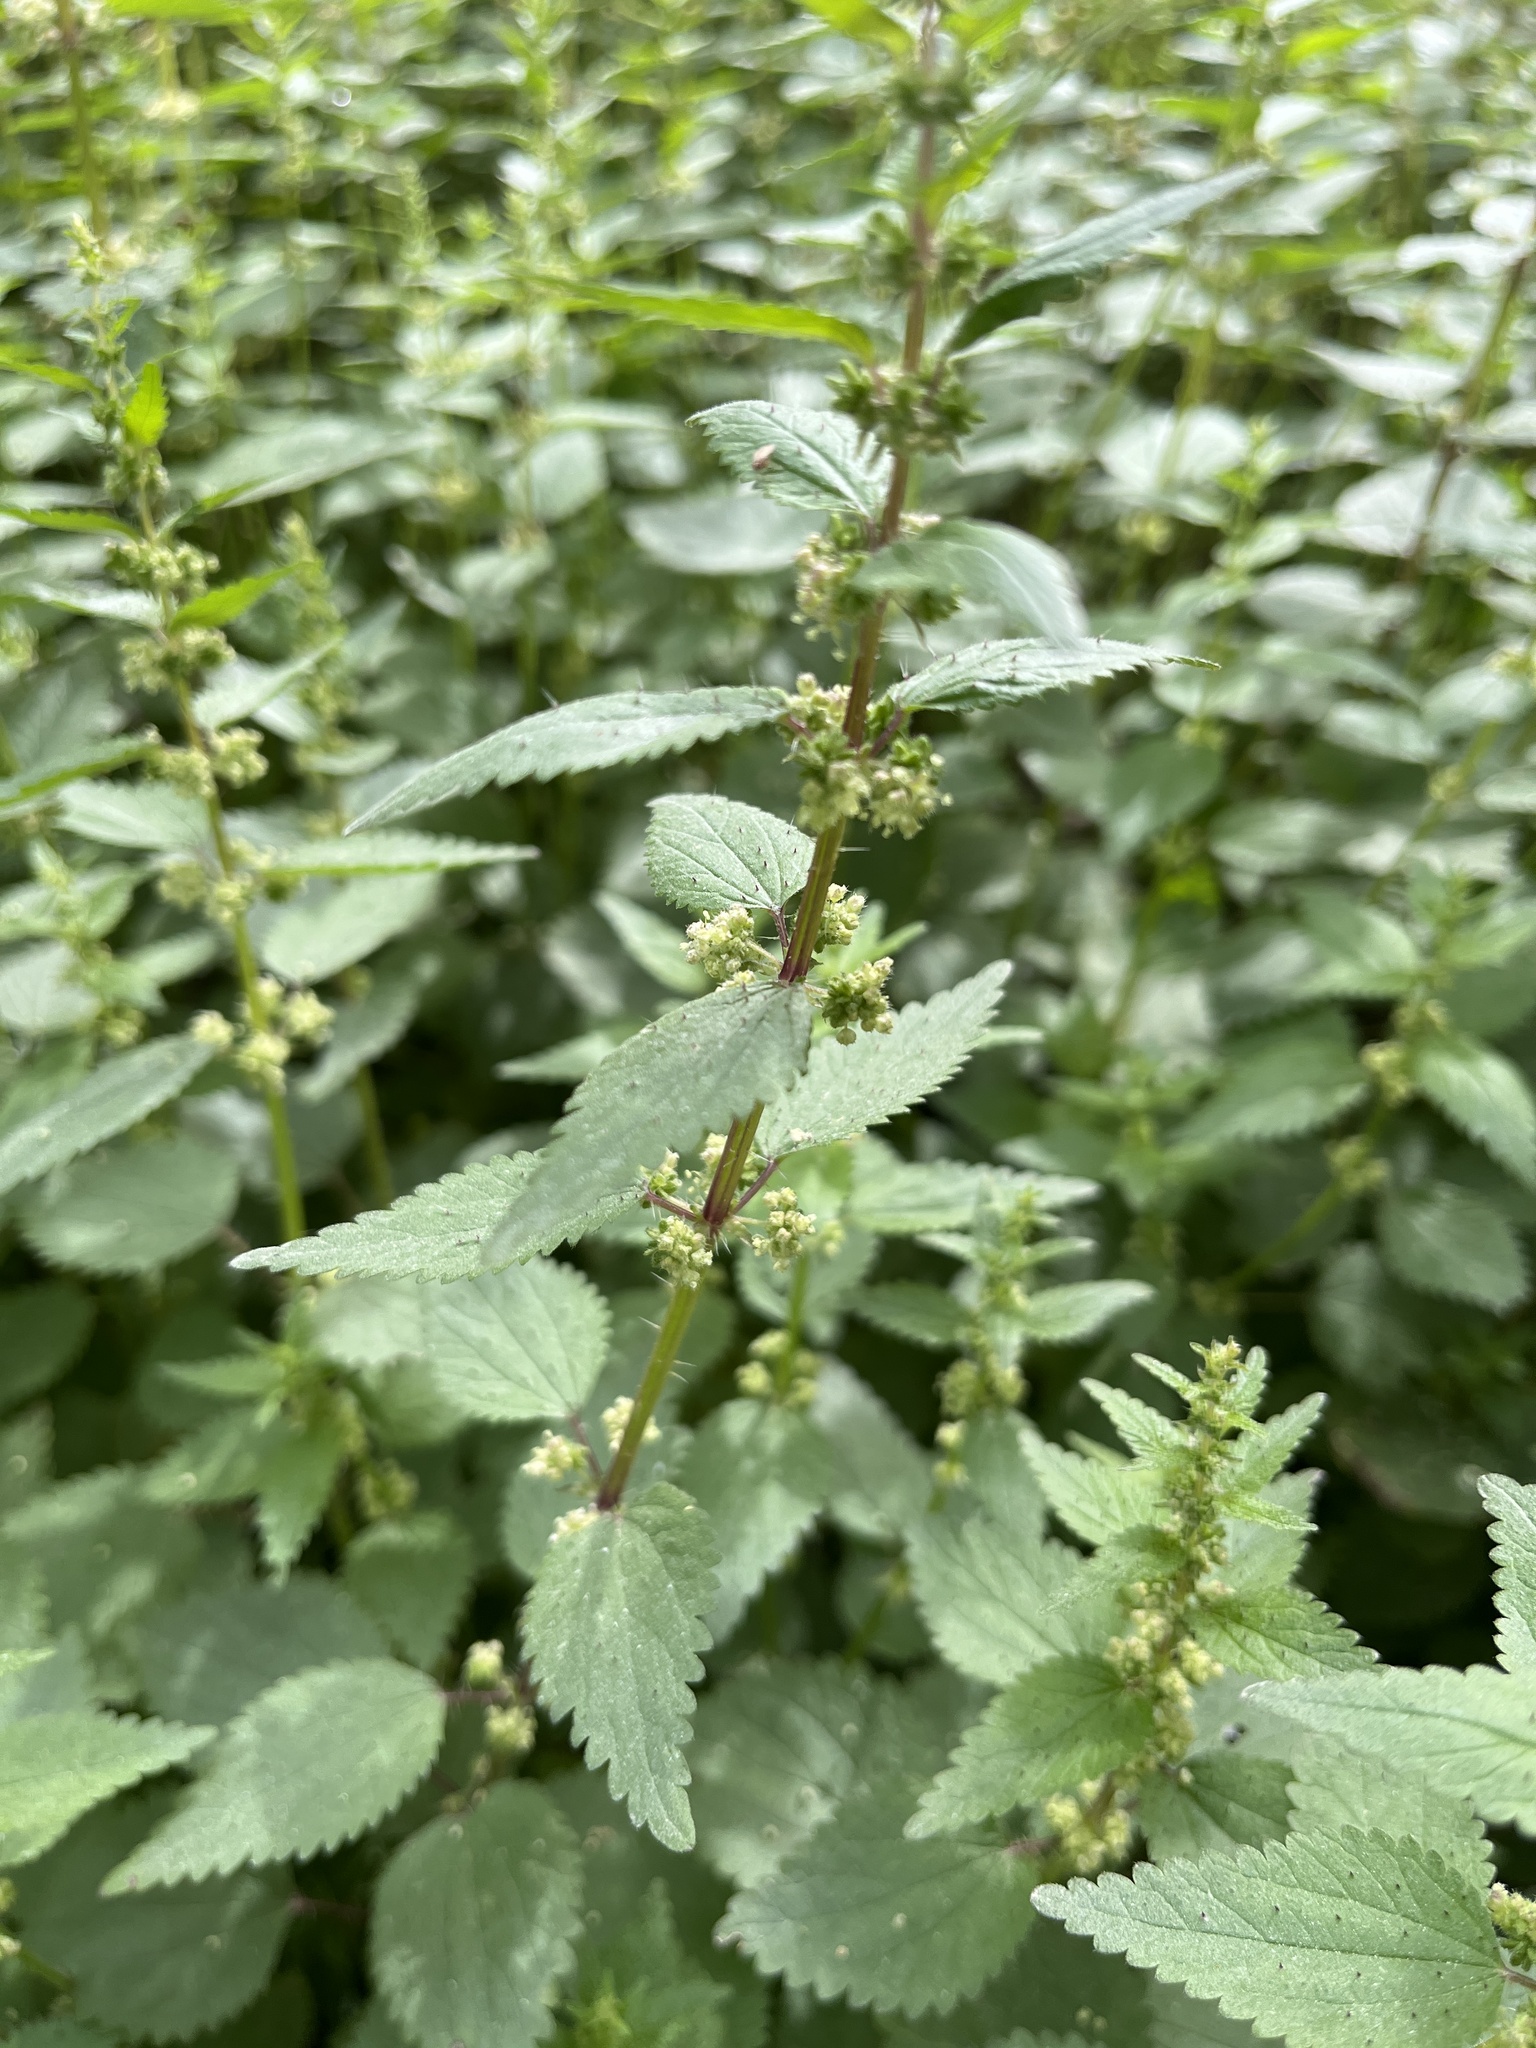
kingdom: Plantae
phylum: Tracheophyta
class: Magnoliopsida
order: Rosales
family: Urticaceae
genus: Urtica
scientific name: Urtica chamaedryoides
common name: Heart-leaf nettle
